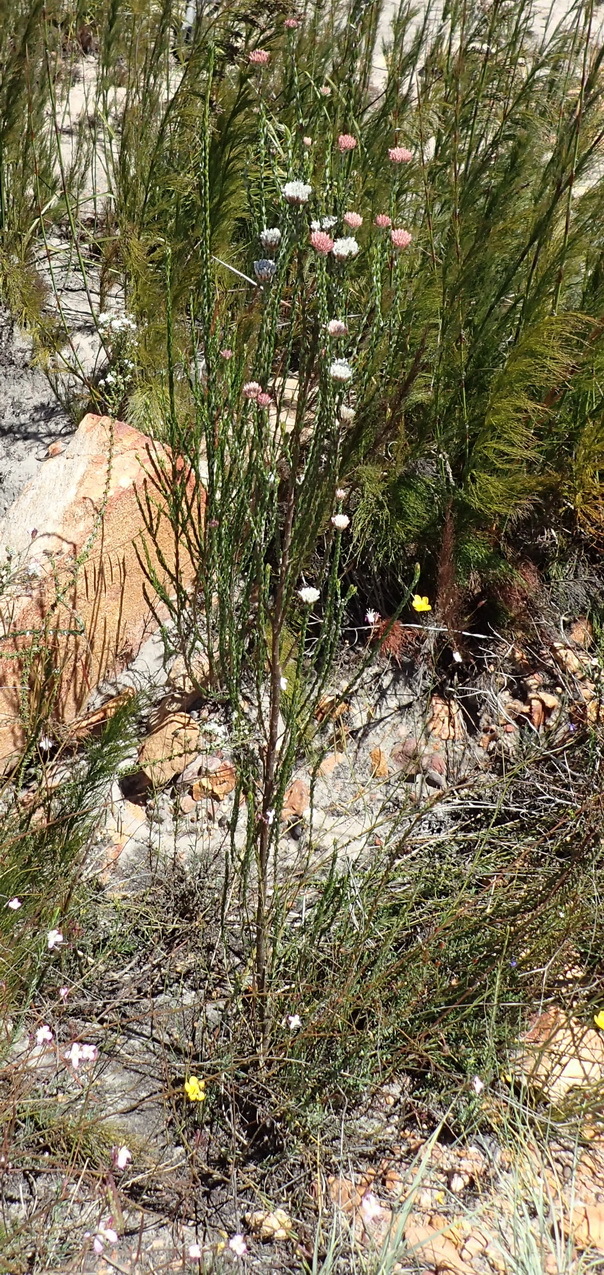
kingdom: Plantae
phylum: Tracheophyta
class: Magnoliopsida
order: Asterales
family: Asteraceae
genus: Metalasia
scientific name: Metalasia pulcherrima
